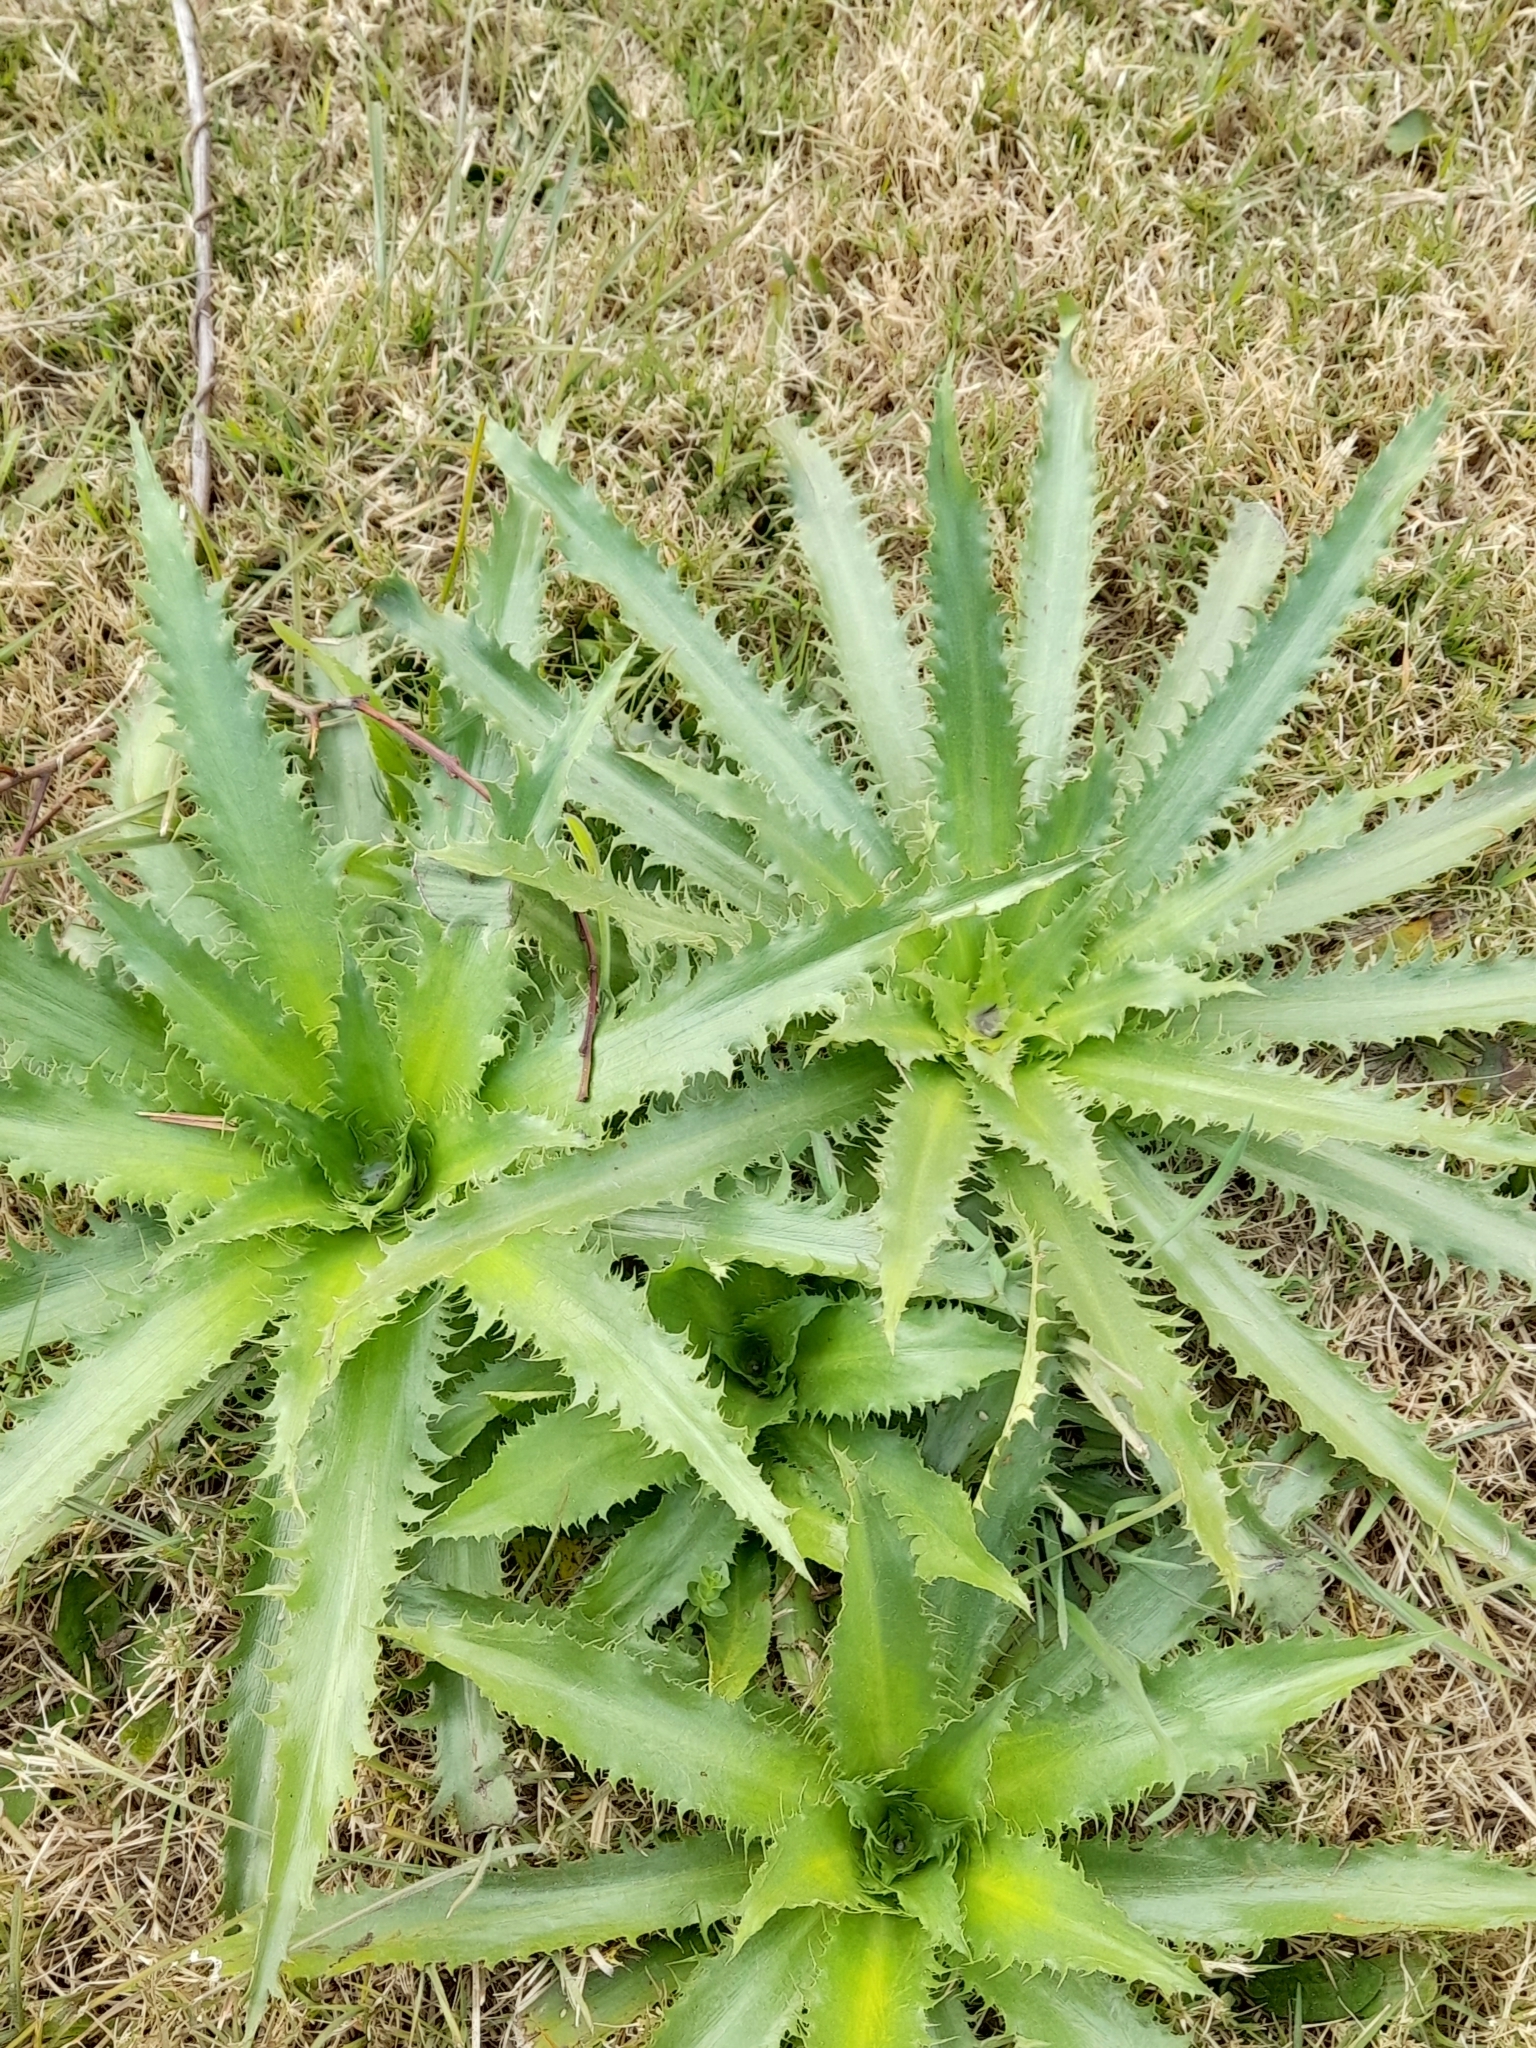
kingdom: Plantae
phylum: Tracheophyta
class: Magnoliopsida
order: Apiales
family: Apiaceae
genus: Eryngium
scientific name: Eryngium serra
